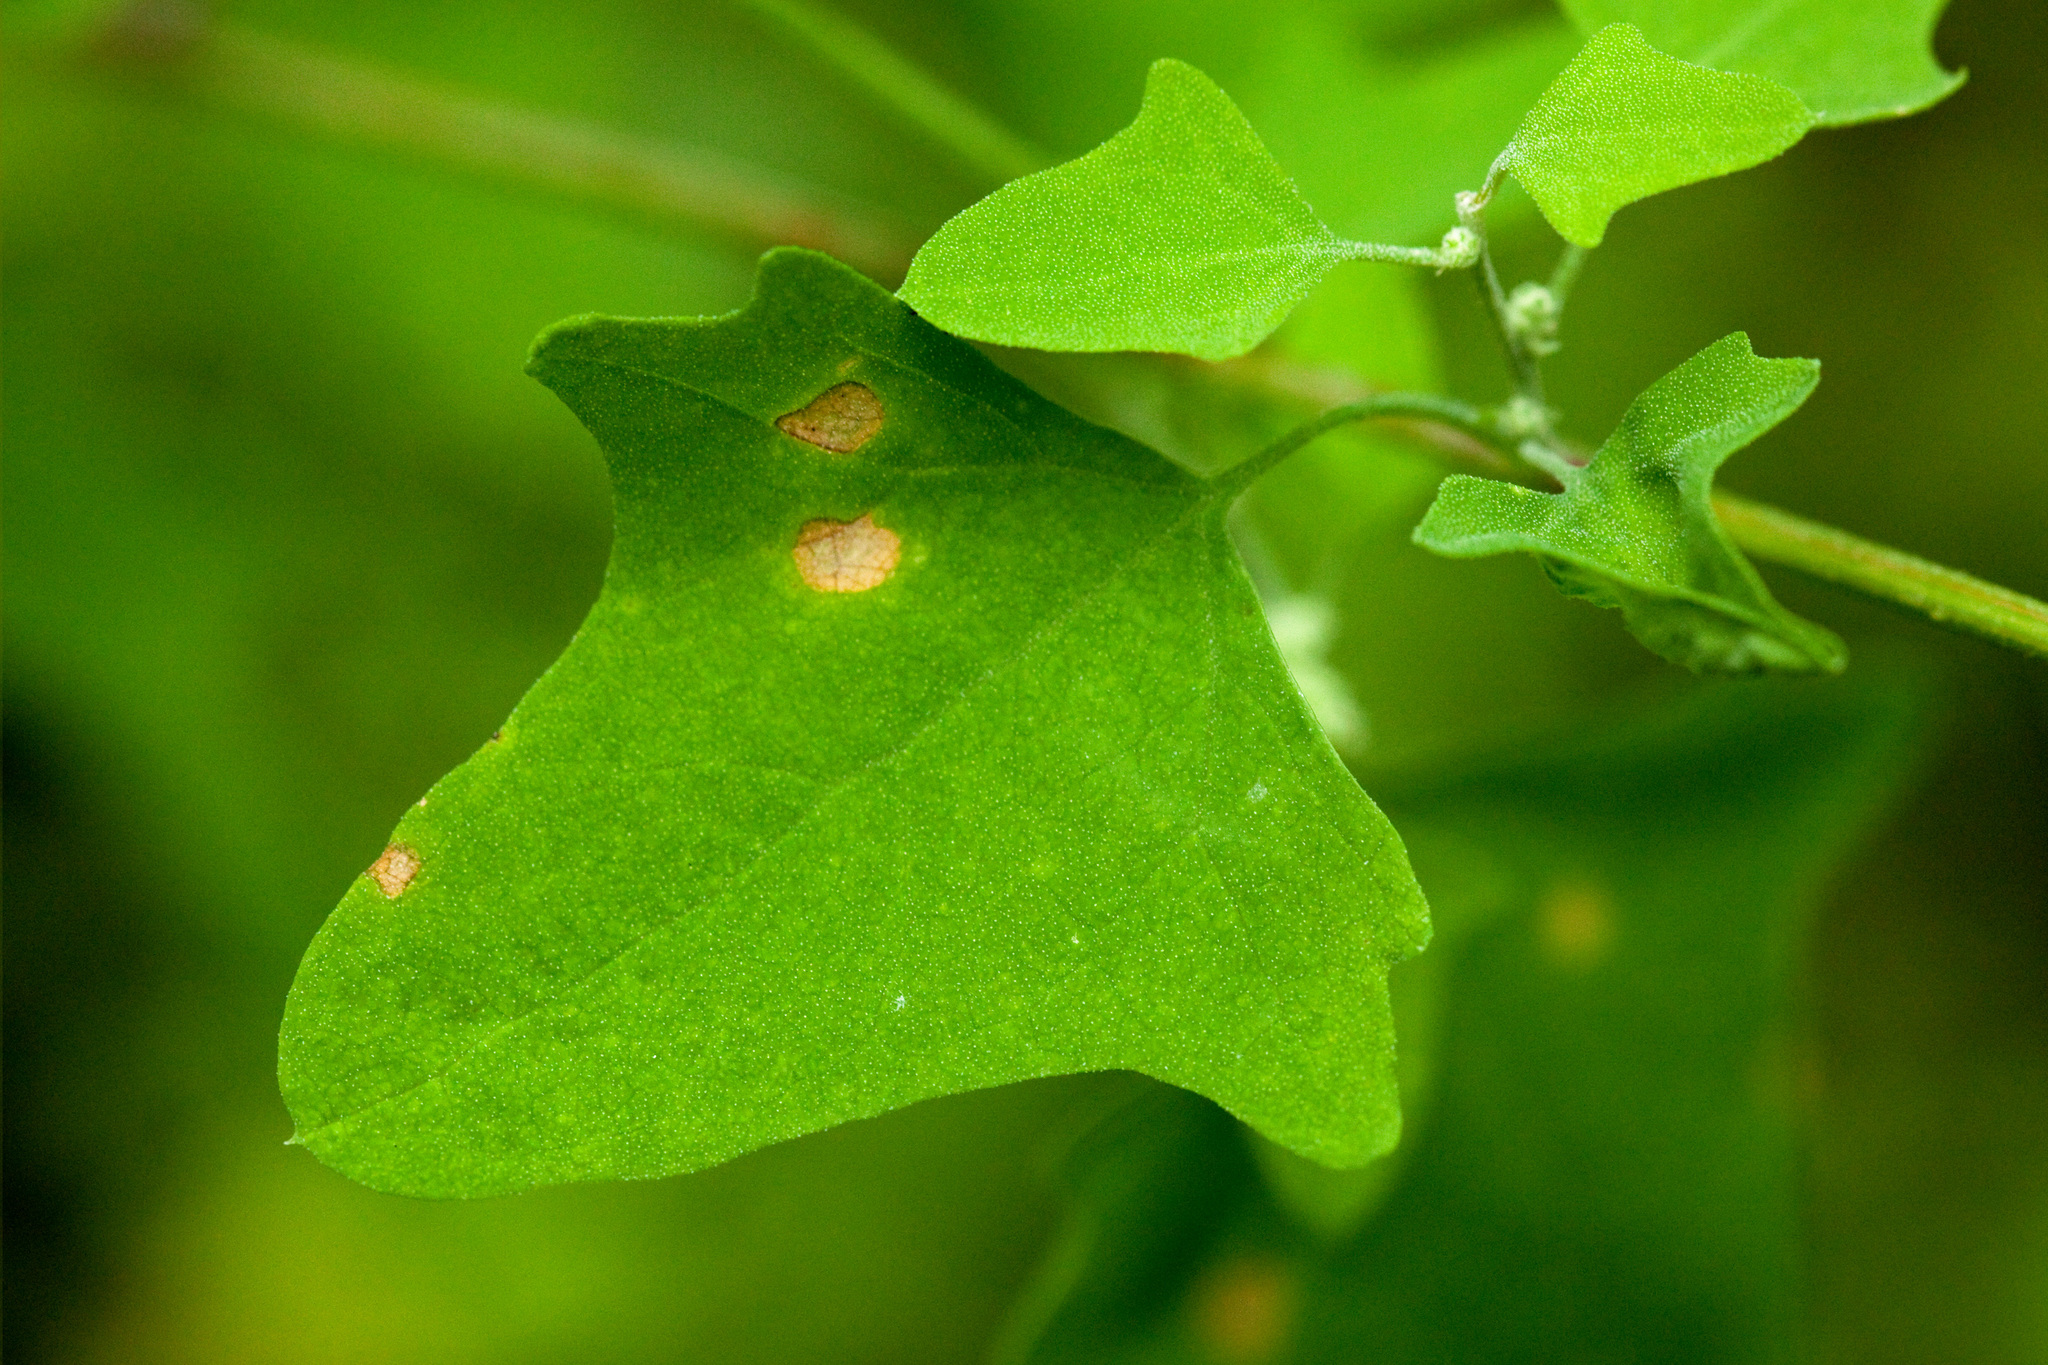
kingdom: Plantae
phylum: Tracheophyta
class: Magnoliopsida
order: Caryophyllales
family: Amaranthaceae
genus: Chenopodium
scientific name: Chenopodium fremontii
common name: Fremont's goosefoot
